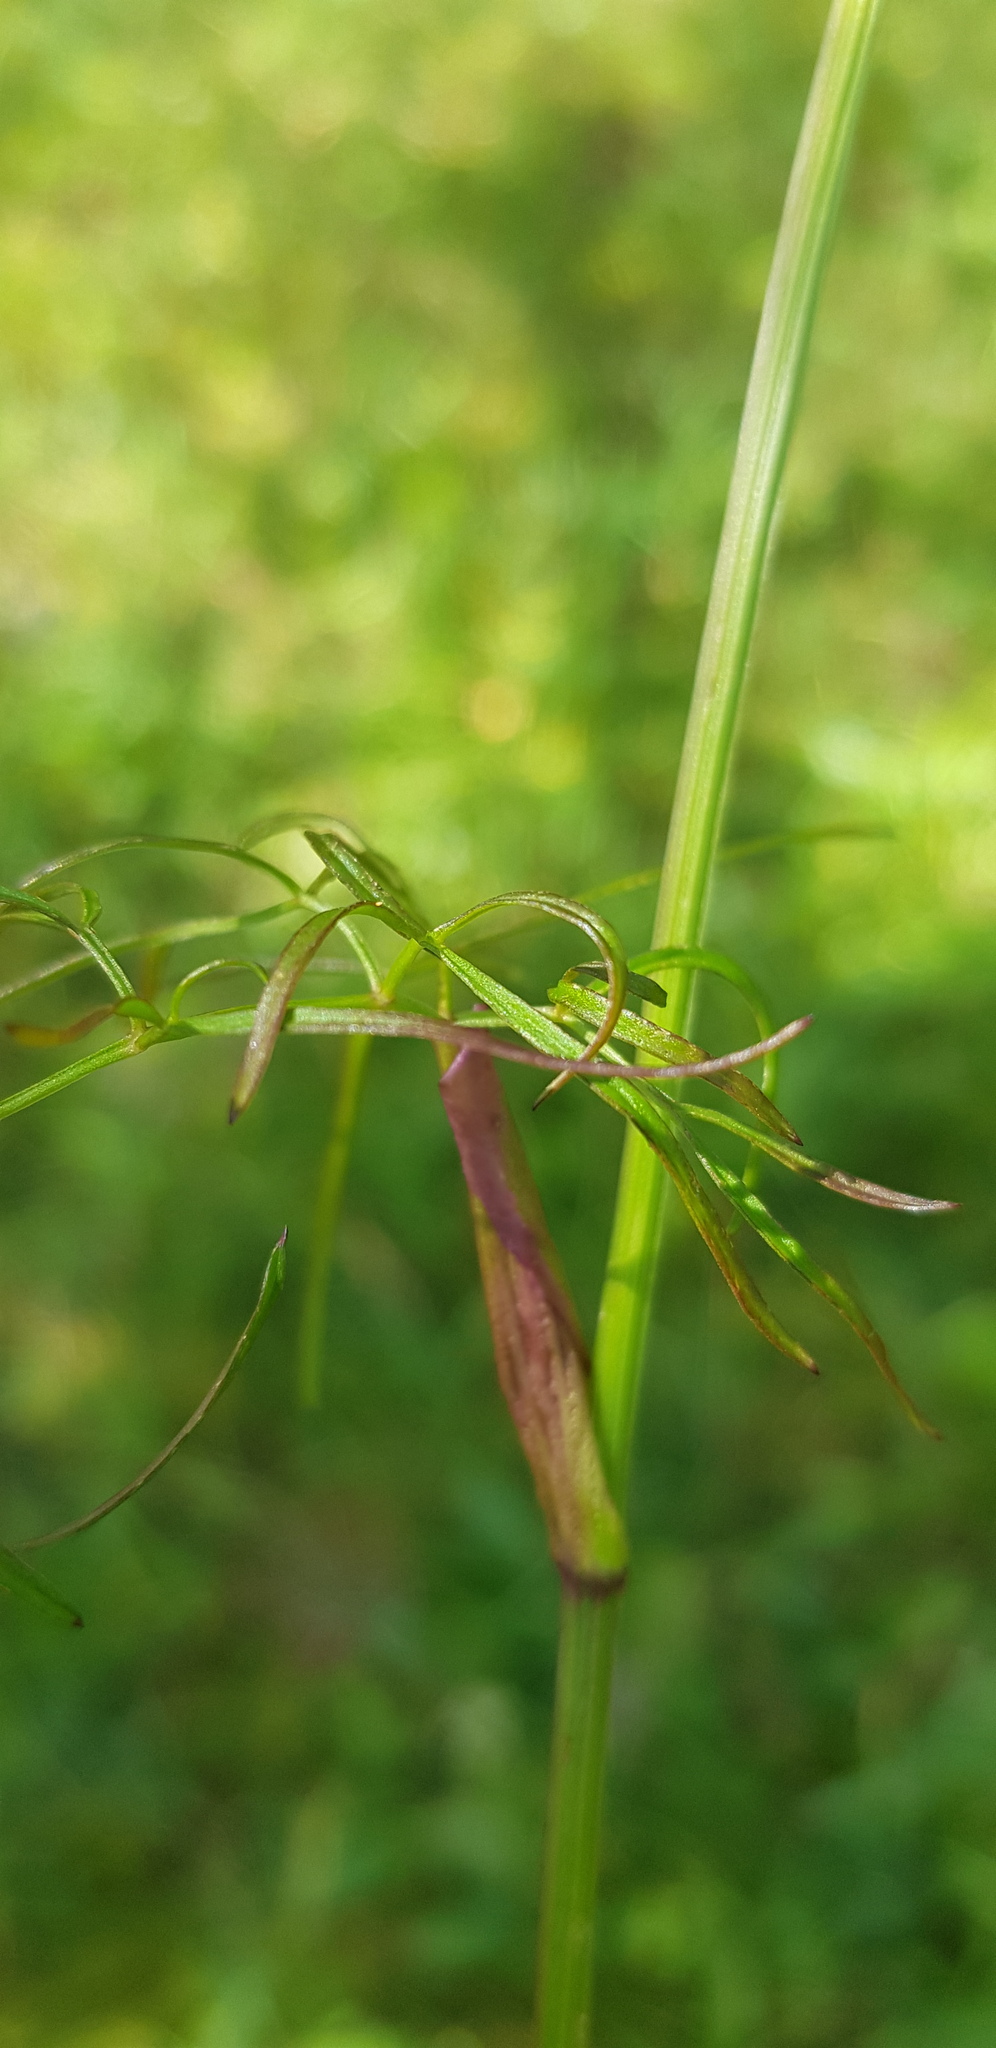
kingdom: Plantae
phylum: Tracheophyta
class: Magnoliopsida
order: Apiales
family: Apiaceae
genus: Ostericum
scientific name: Ostericum tenuifolium
